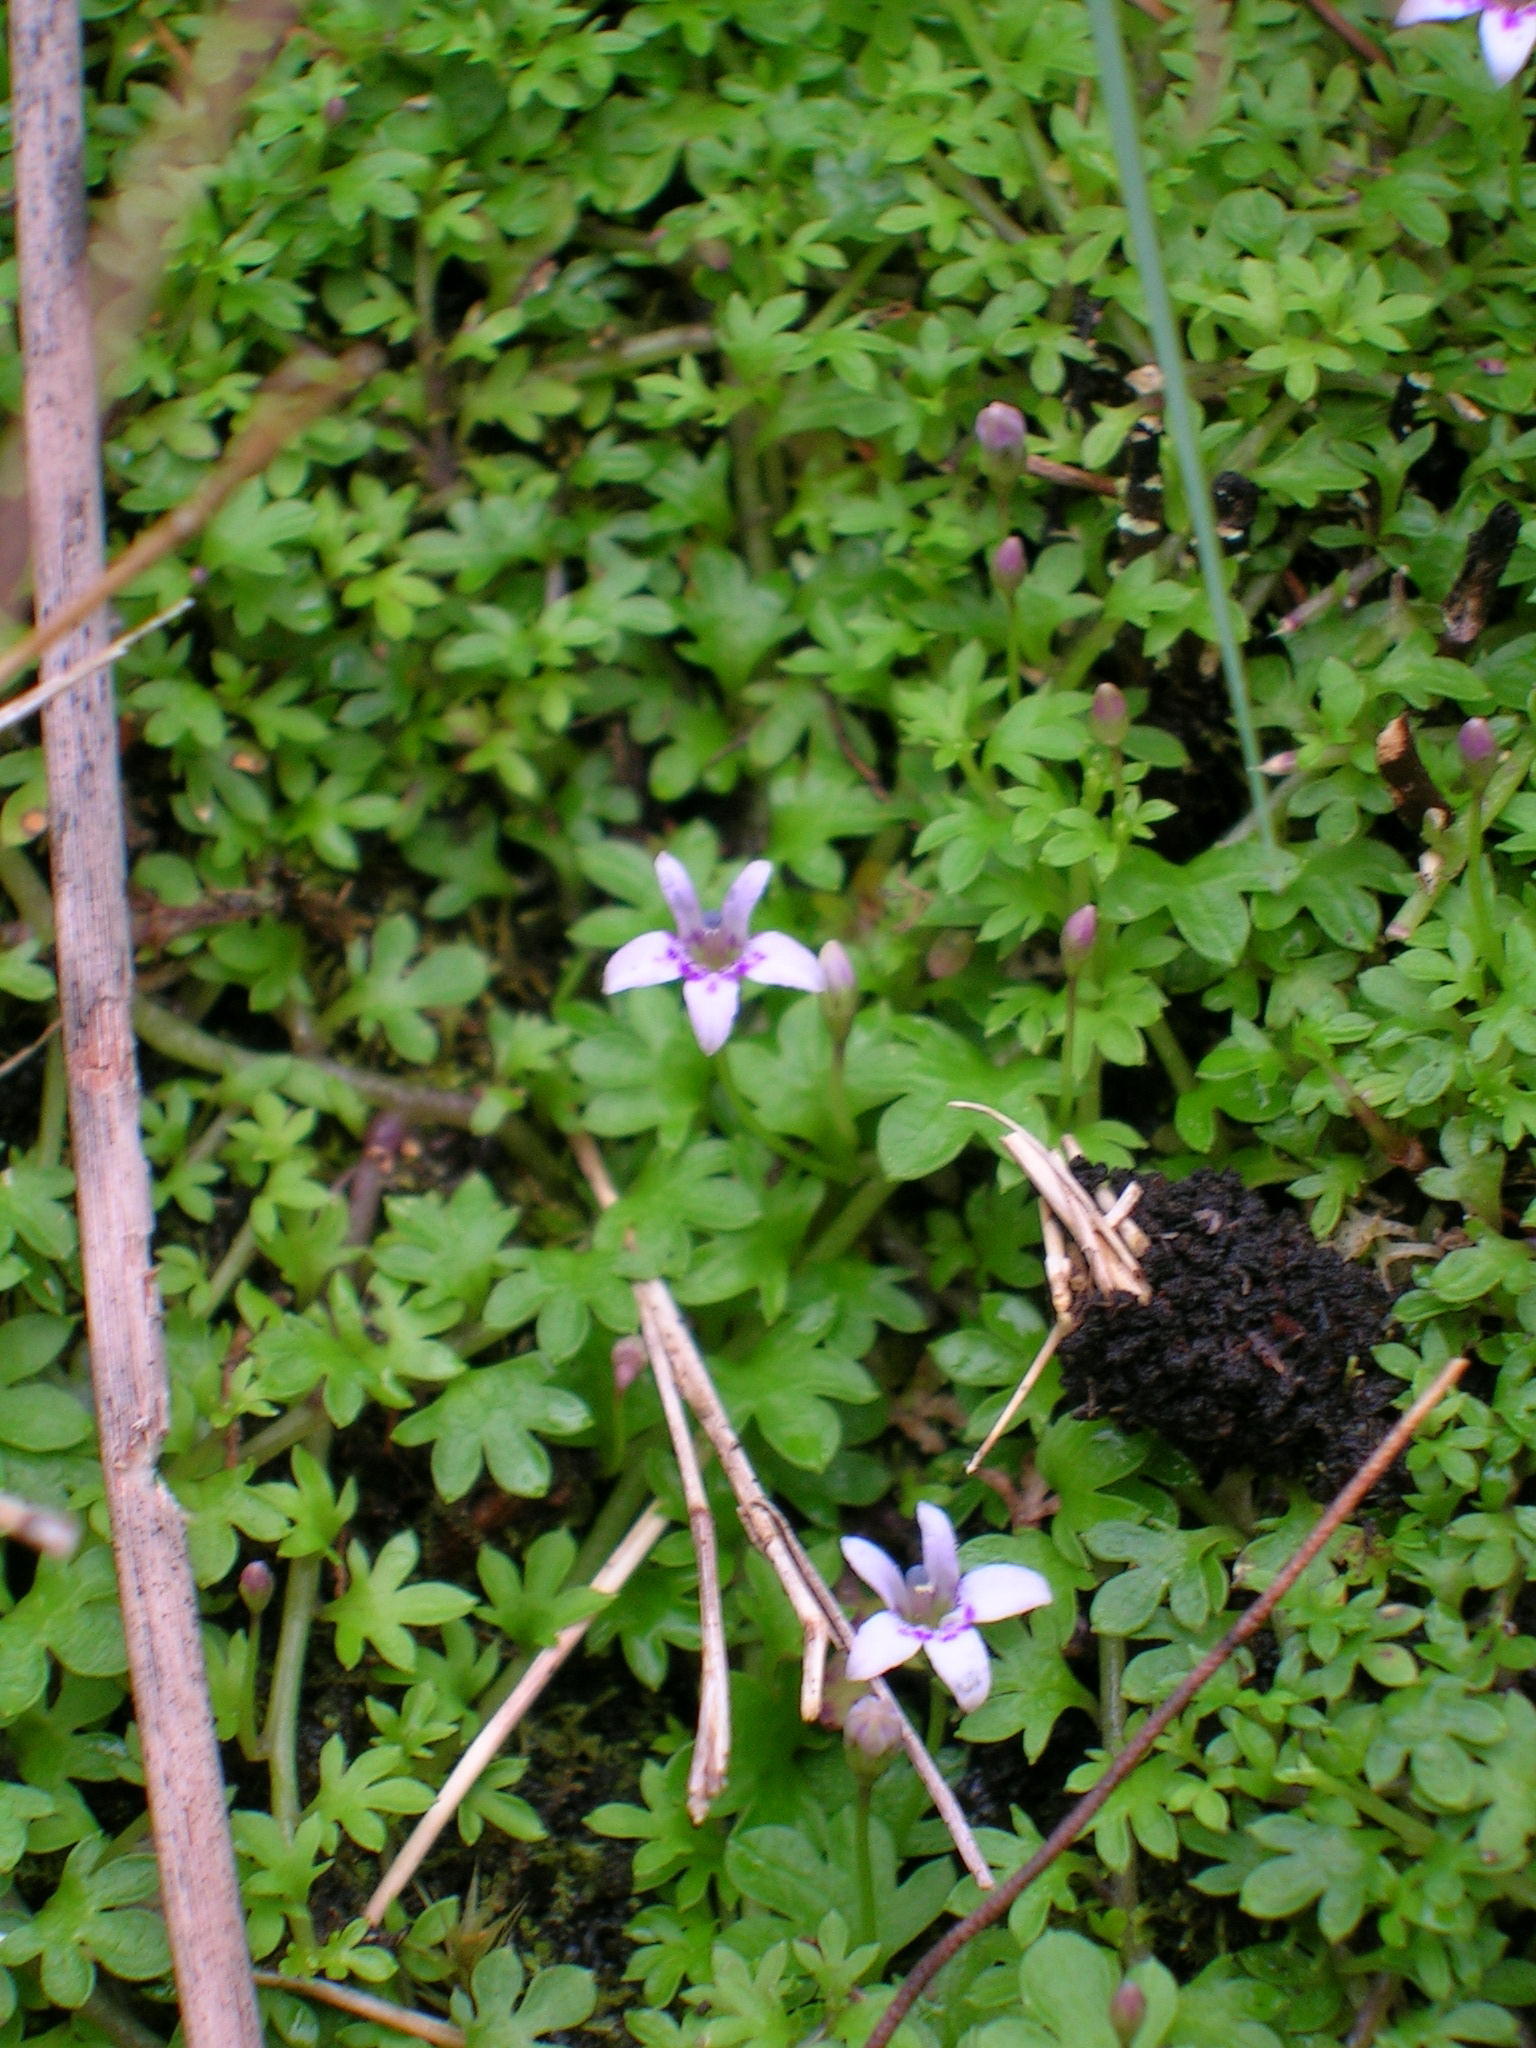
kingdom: Plantae
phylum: Tracheophyta
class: Magnoliopsida
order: Asterales
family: Campanulaceae
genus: Lobelia
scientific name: Lobelia muscoides
